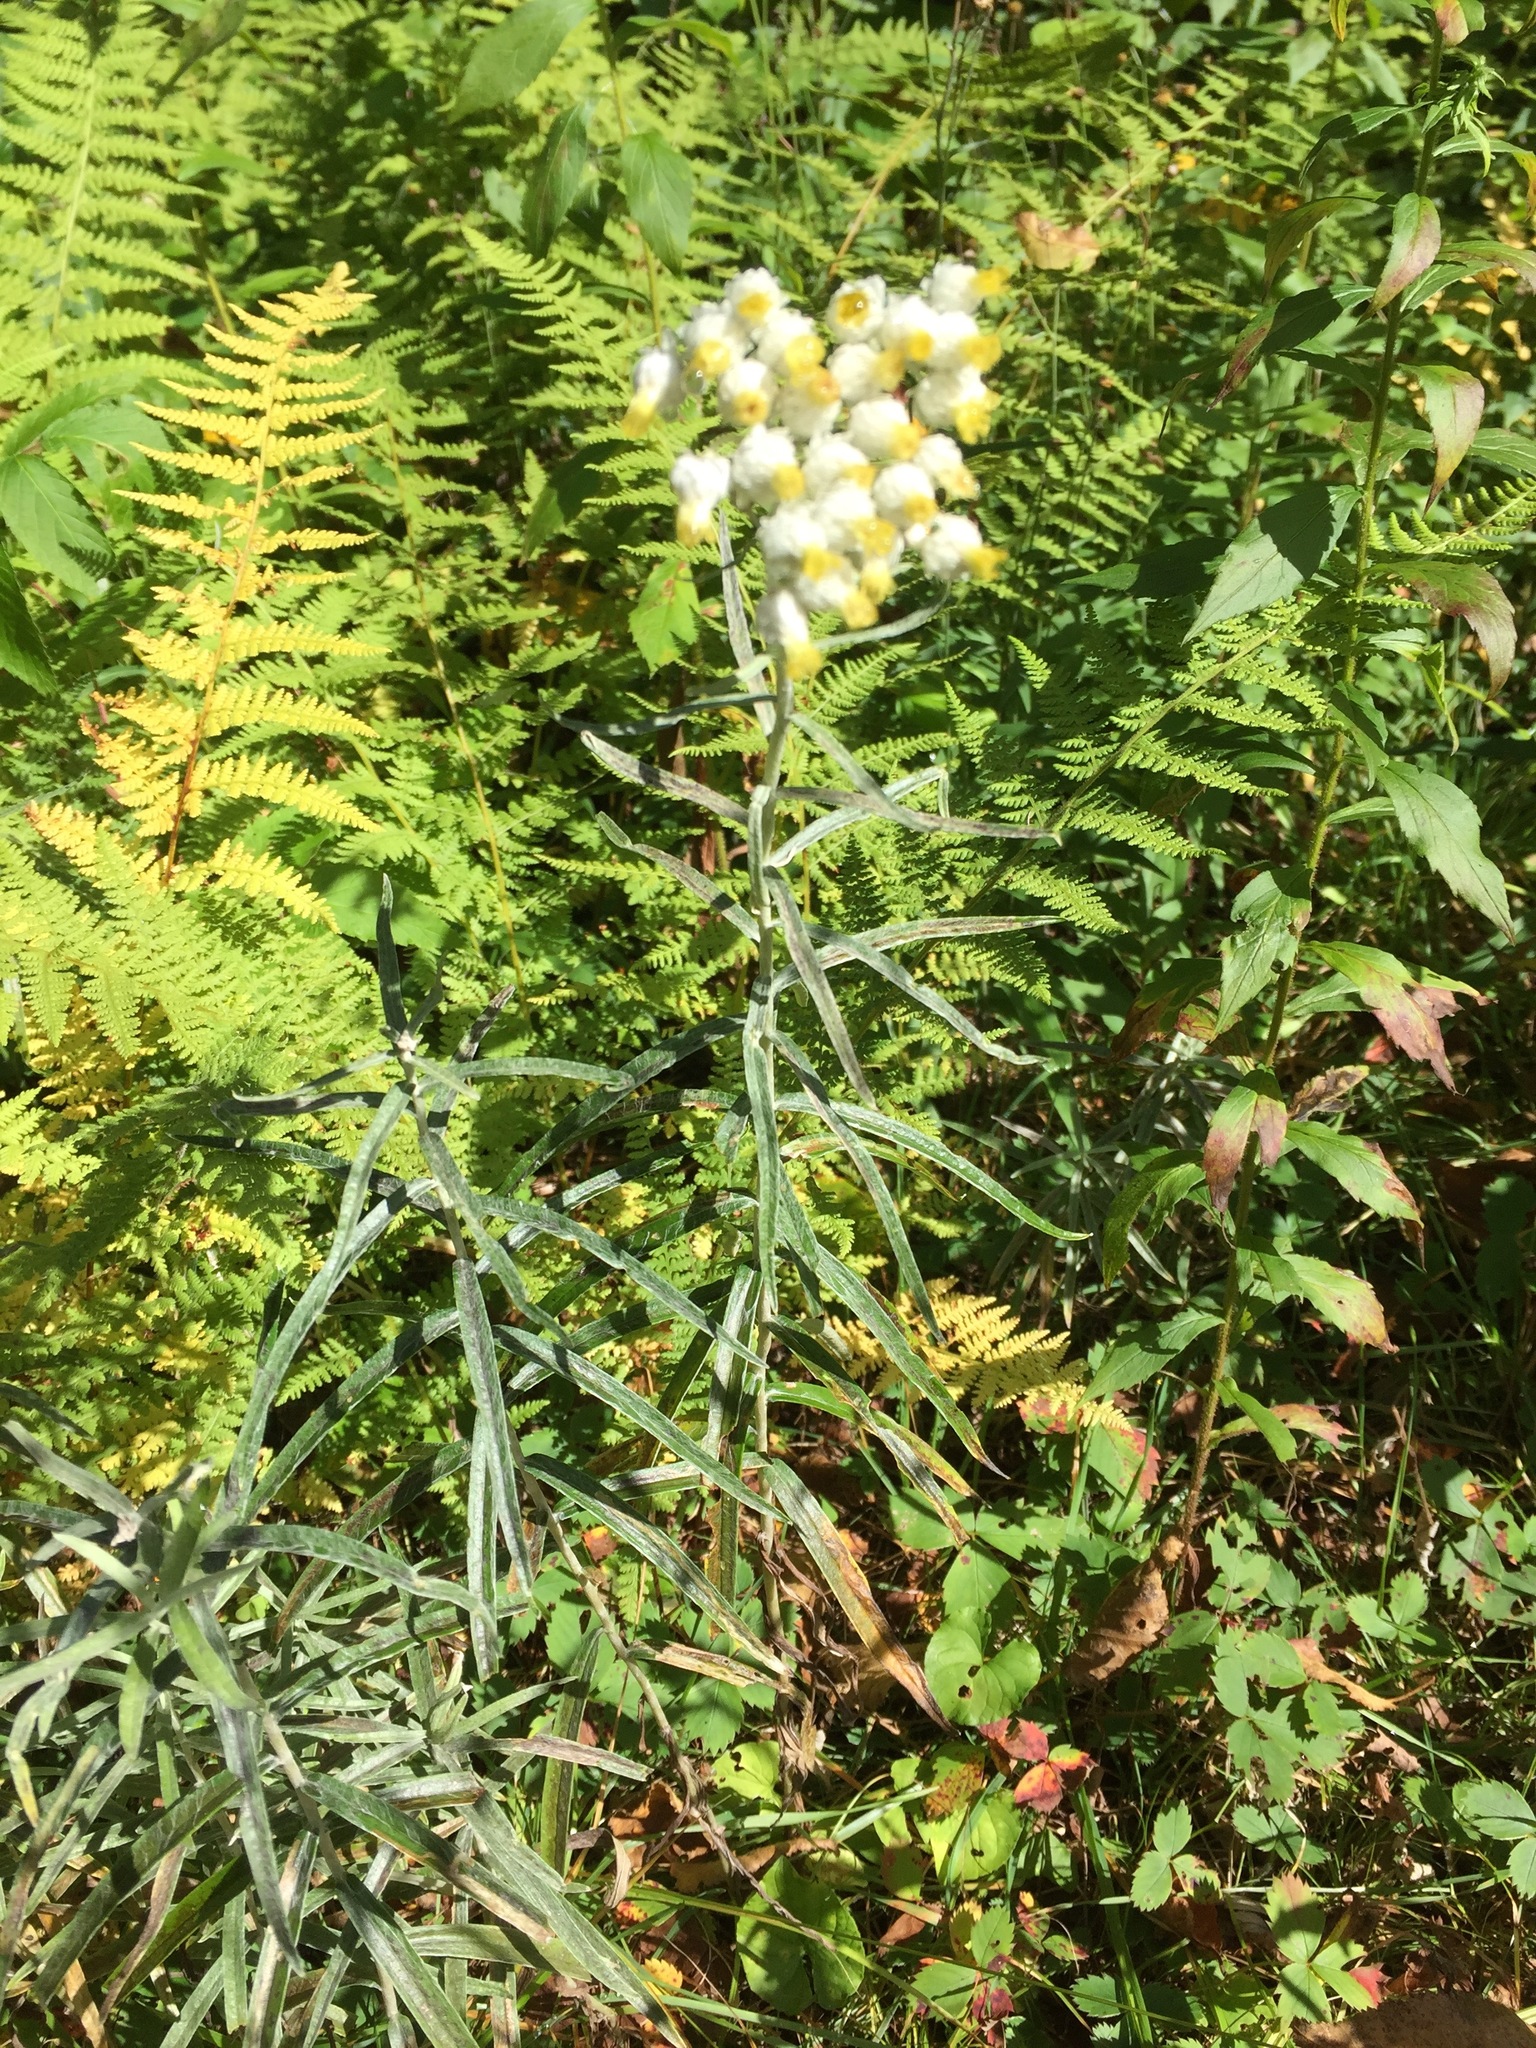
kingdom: Plantae
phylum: Tracheophyta
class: Magnoliopsida
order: Asterales
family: Asteraceae
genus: Anaphalis
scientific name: Anaphalis margaritacea
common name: Pearly everlasting
